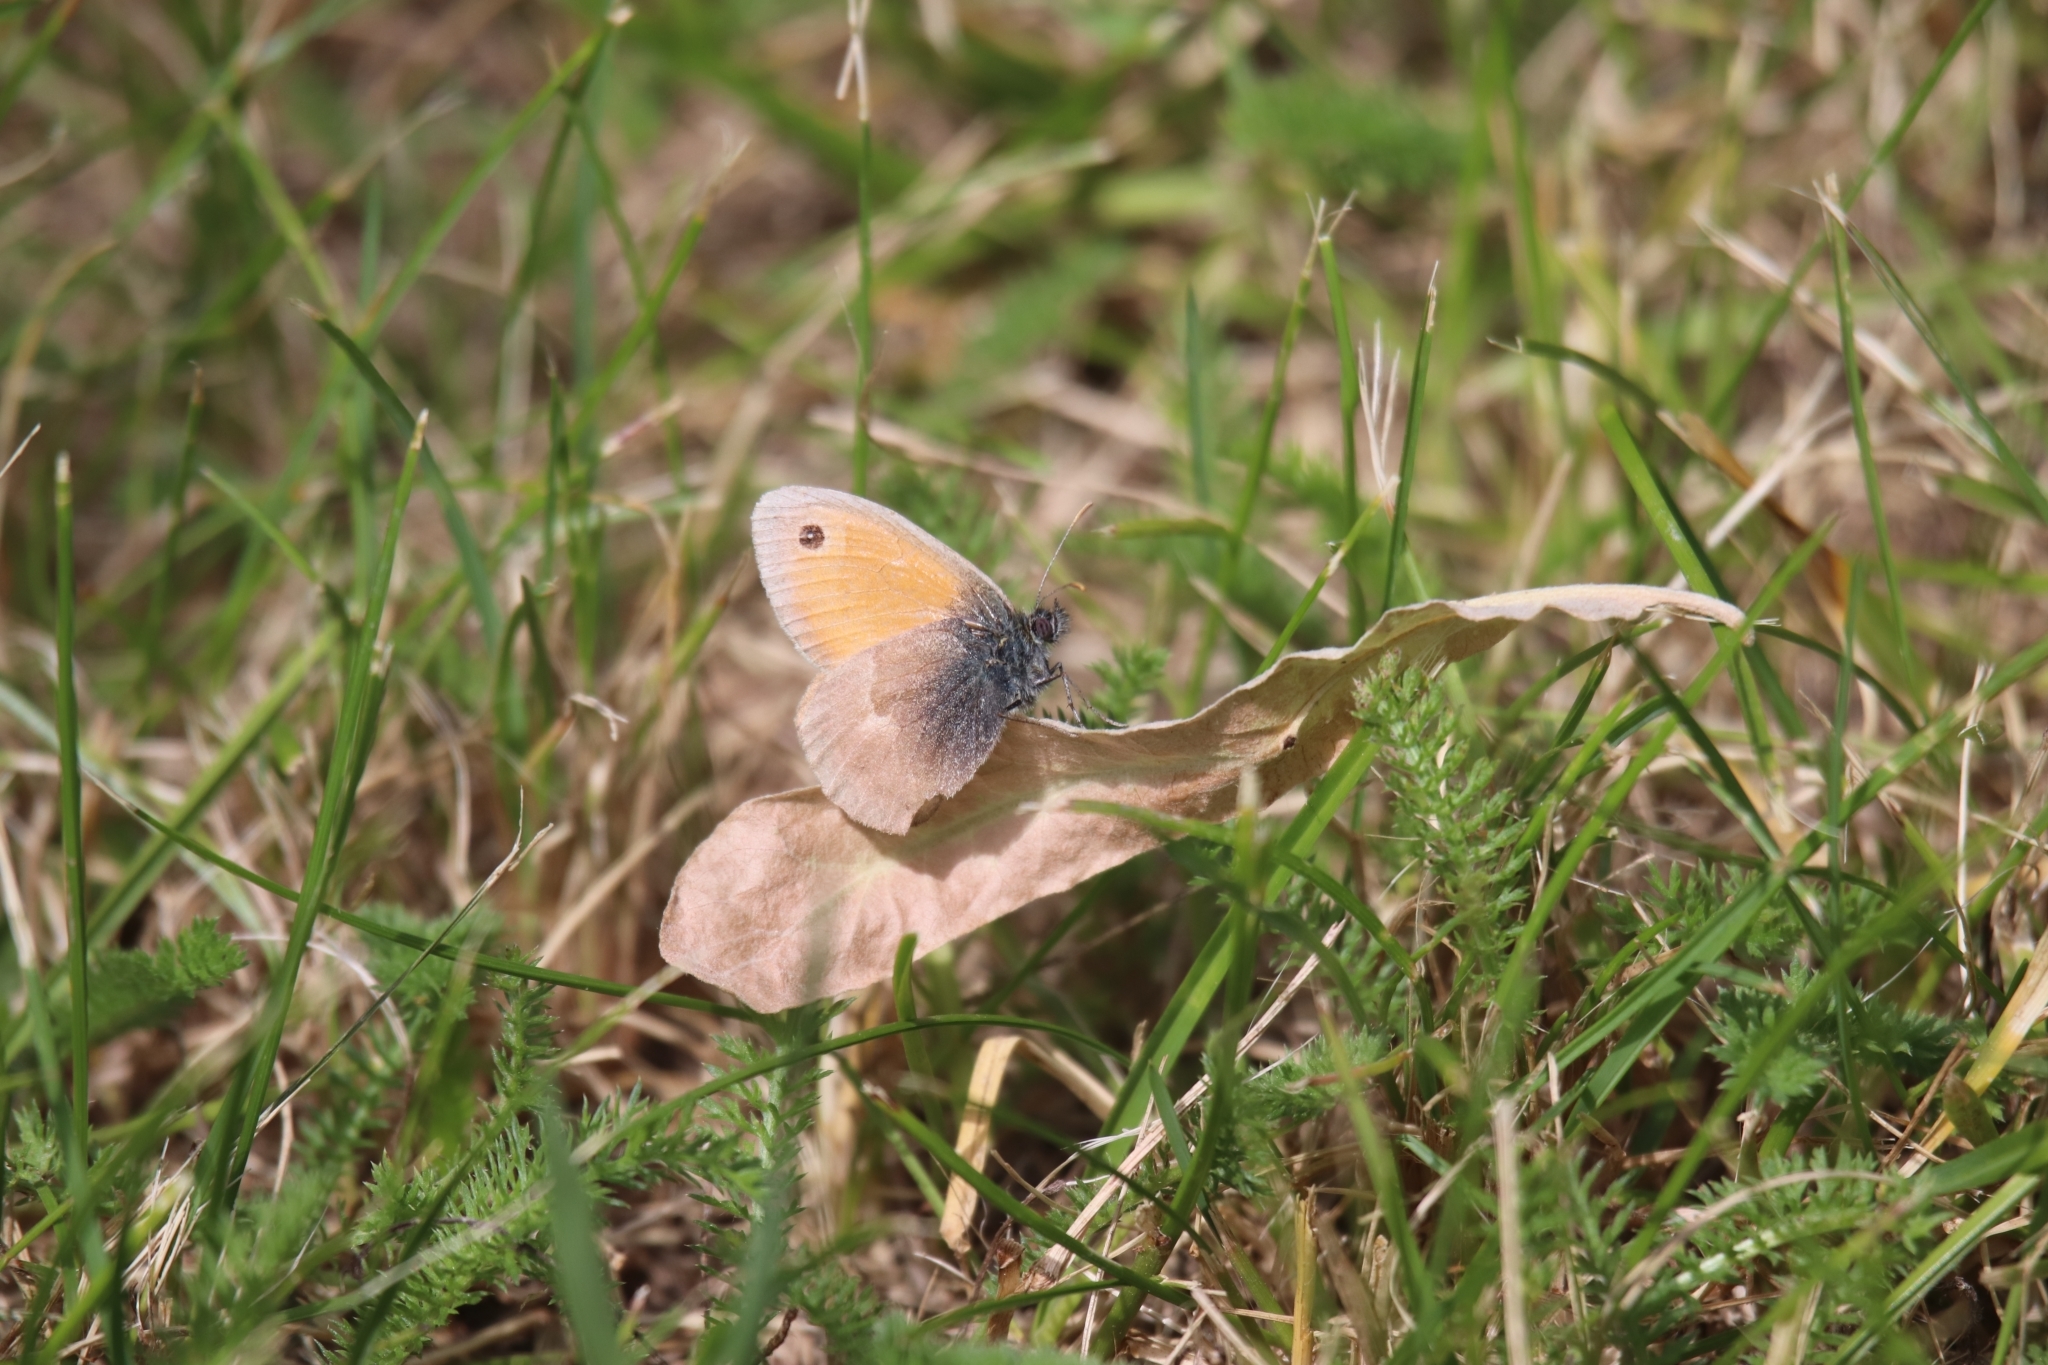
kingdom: Animalia
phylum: Arthropoda
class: Insecta
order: Lepidoptera
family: Nymphalidae
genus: Coenonympha
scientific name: Coenonympha pamphilus
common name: Small heath
